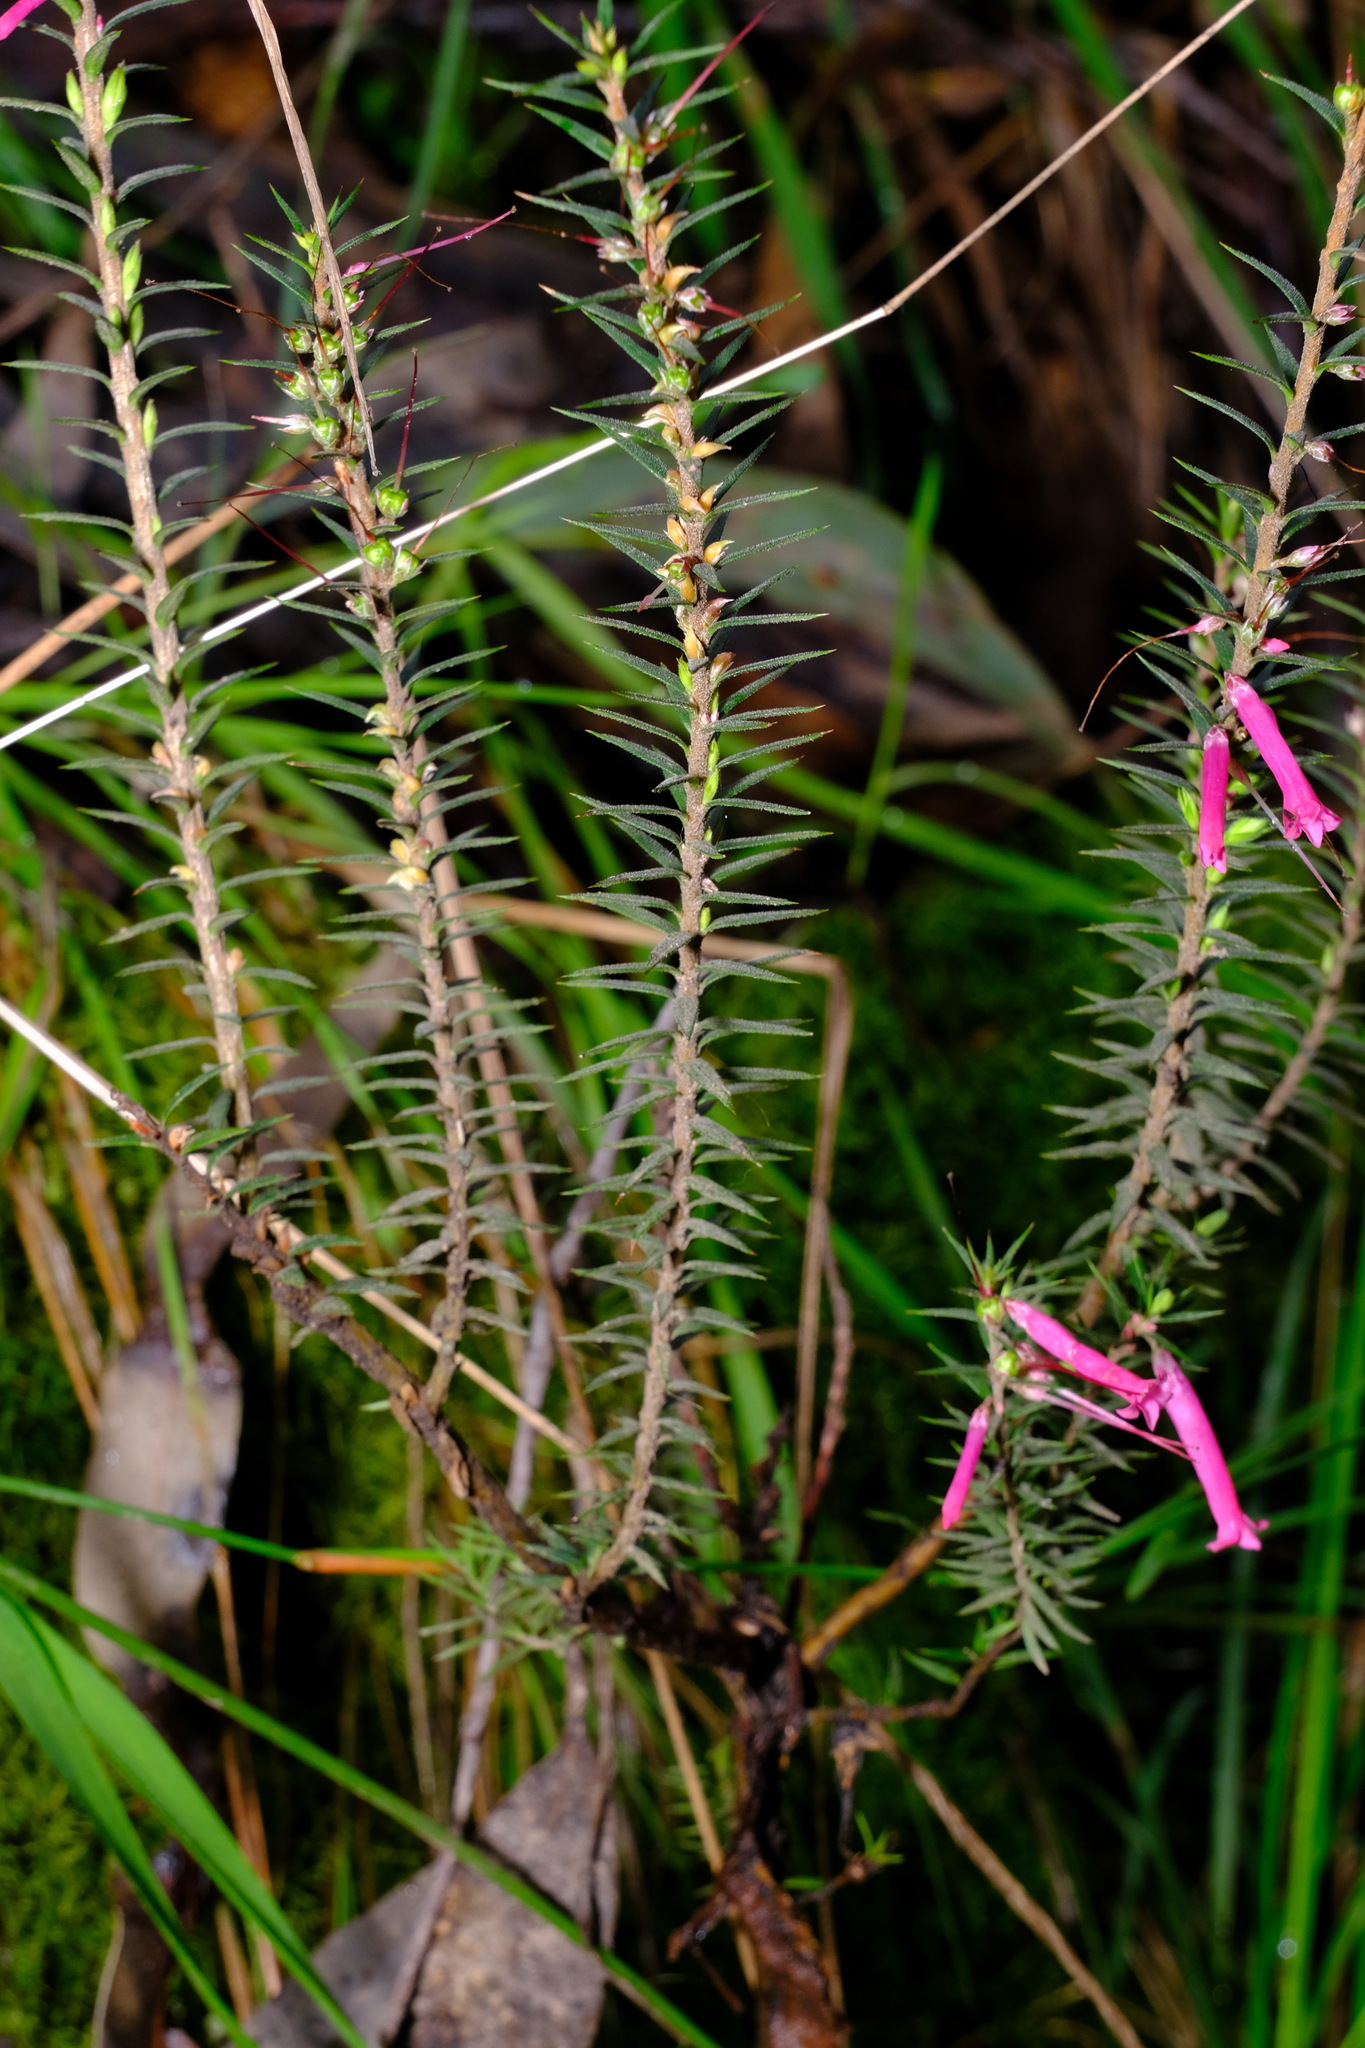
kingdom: Plantae
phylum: Tracheophyta
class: Magnoliopsida
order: Ericales
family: Ericaceae
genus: Epacris
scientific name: Epacris impressa
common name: Common-heath
